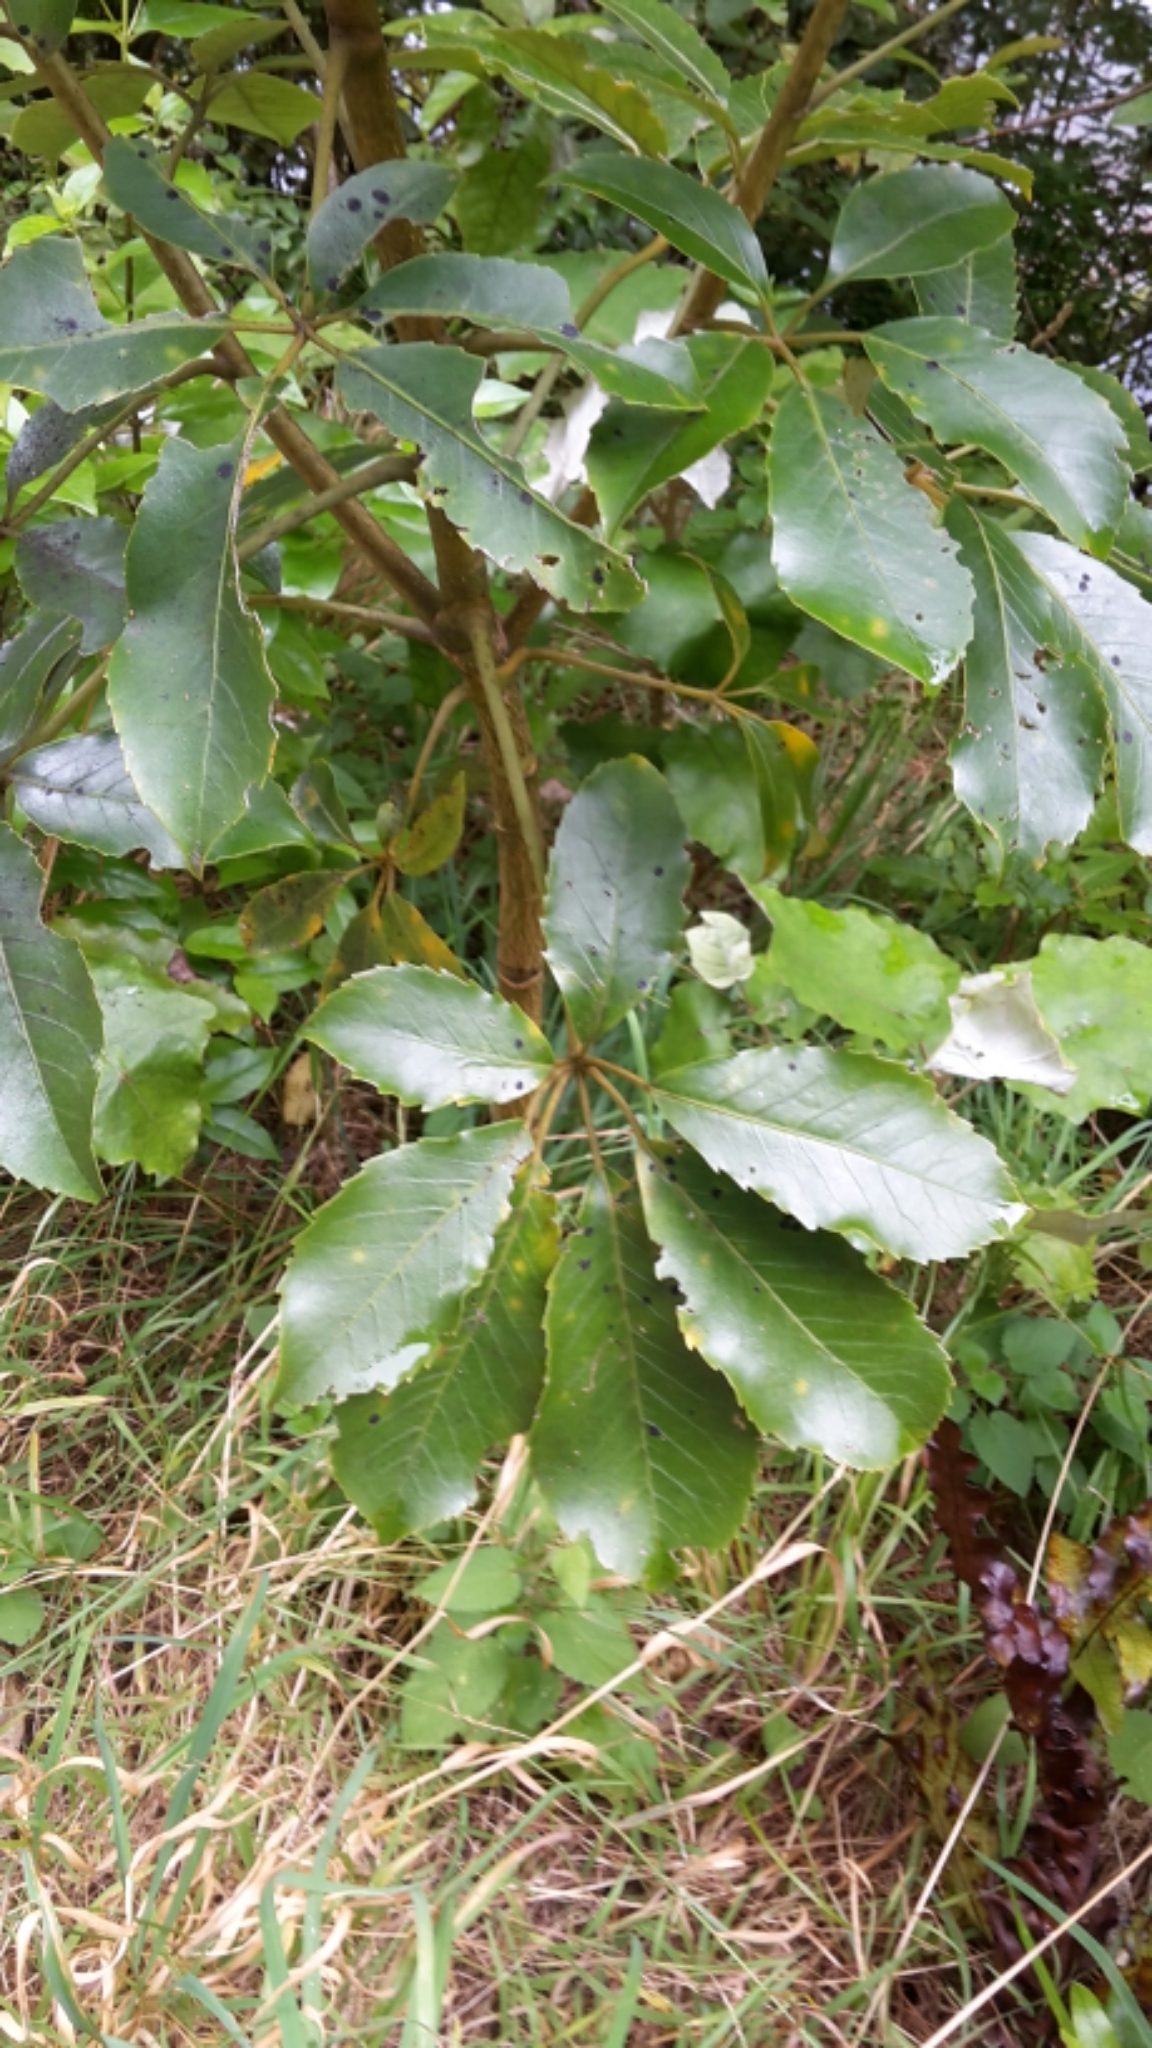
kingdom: Plantae
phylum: Tracheophyta
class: Magnoliopsida
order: Apiales
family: Araliaceae
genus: Neopanax
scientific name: Neopanax arboreus
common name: Five-fingers
